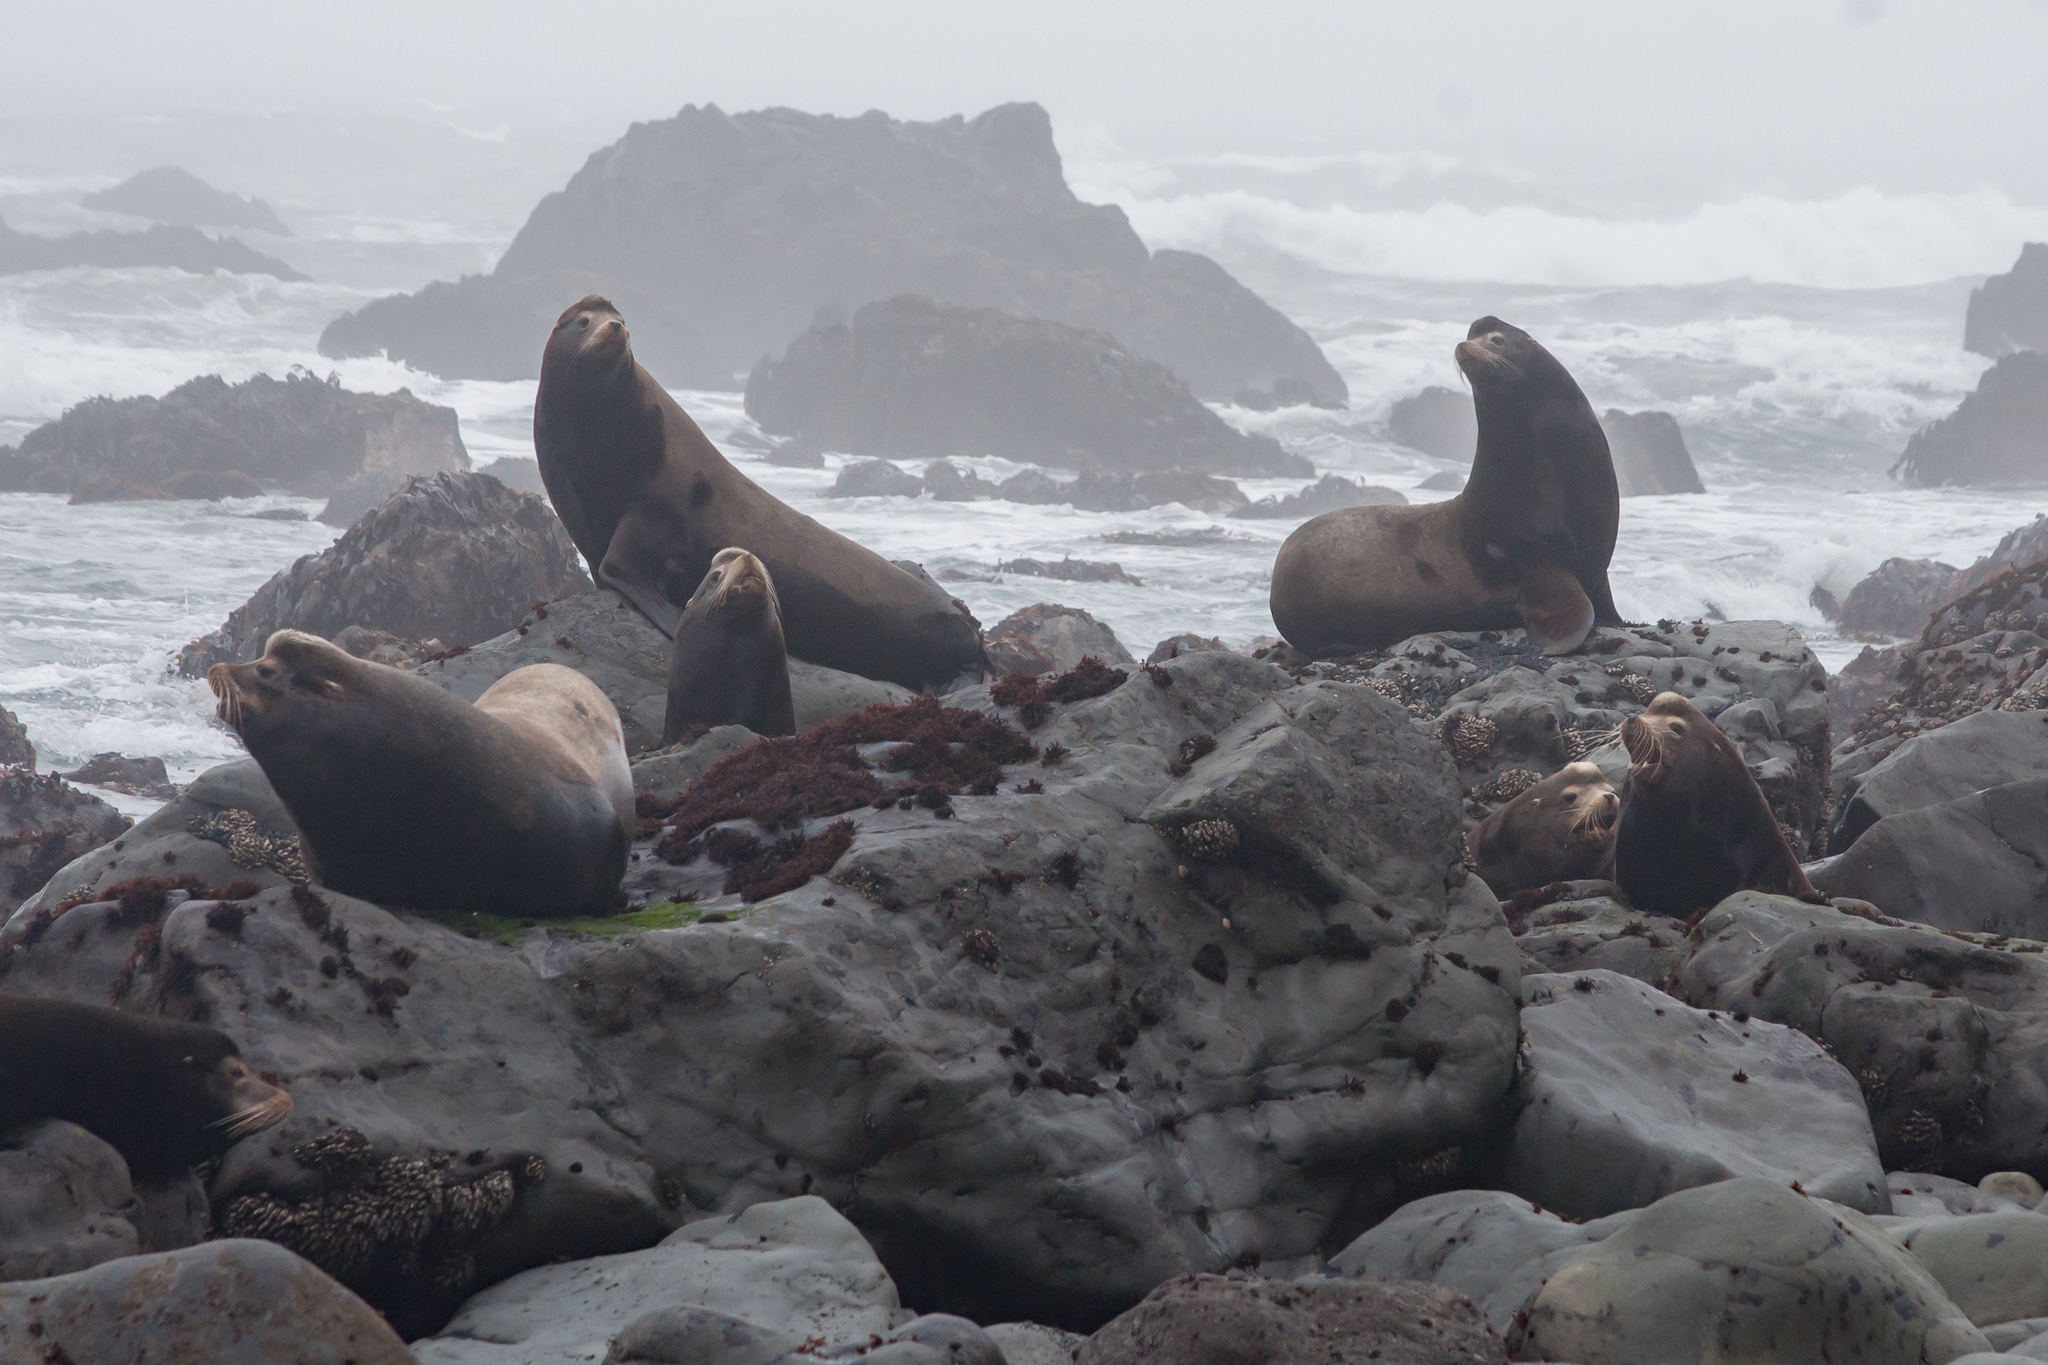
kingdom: Animalia
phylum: Chordata
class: Mammalia
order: Carnivora
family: Otariidae
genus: Zalophus
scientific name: Zalophus californianus
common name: California sea lion
